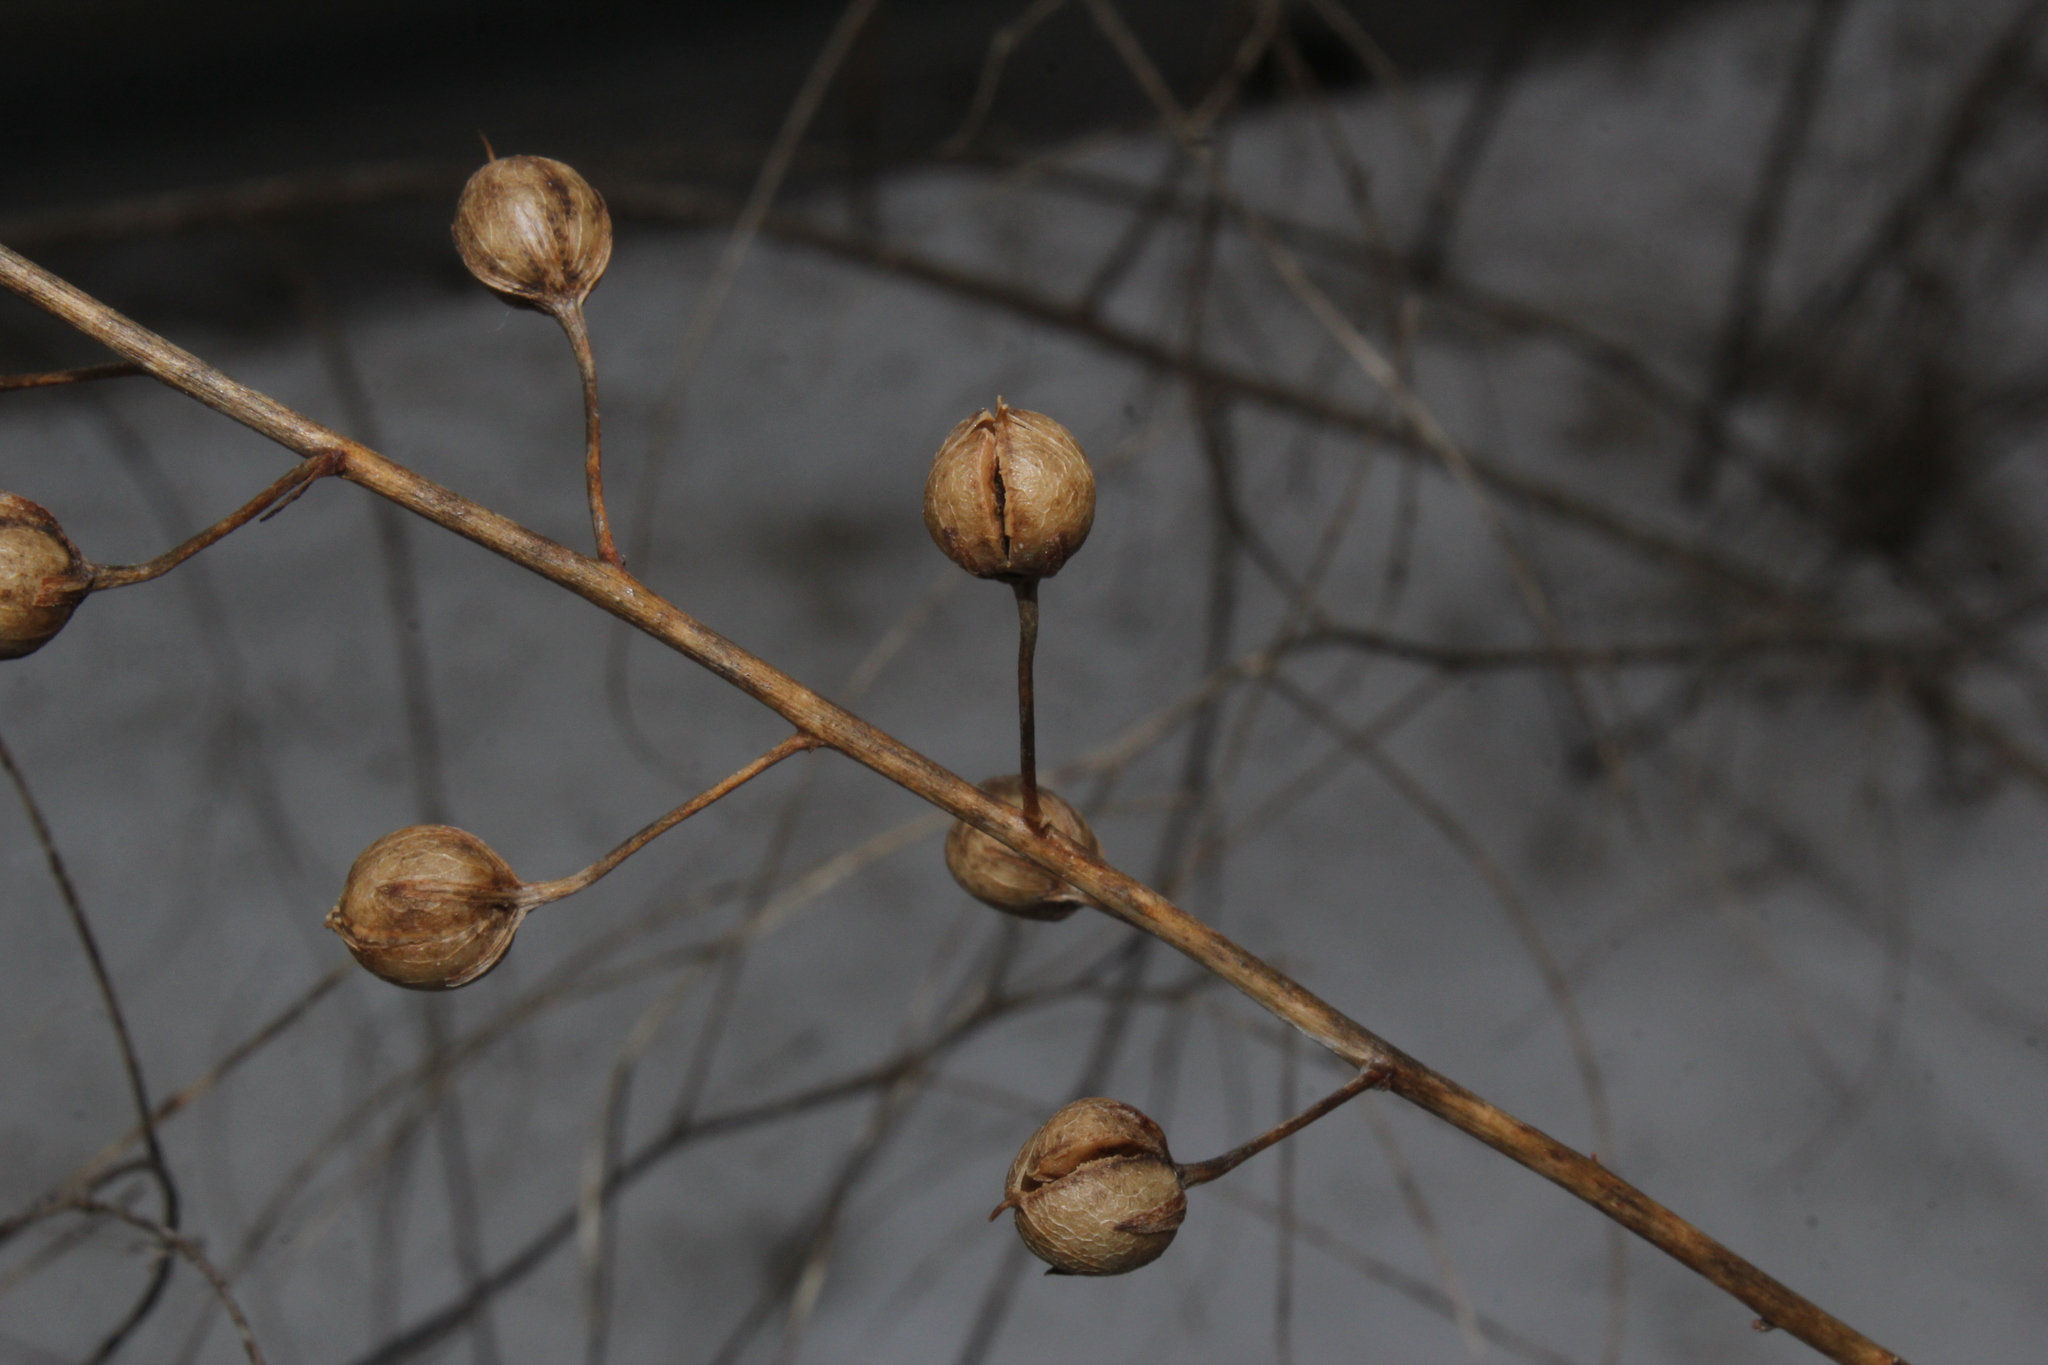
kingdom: Plantae
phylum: Tracheophyta
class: Magnoliopsida
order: Lamiales
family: Scrophulariaceae
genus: Verbascum
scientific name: Verbascum blattaria
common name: Moth mullein
